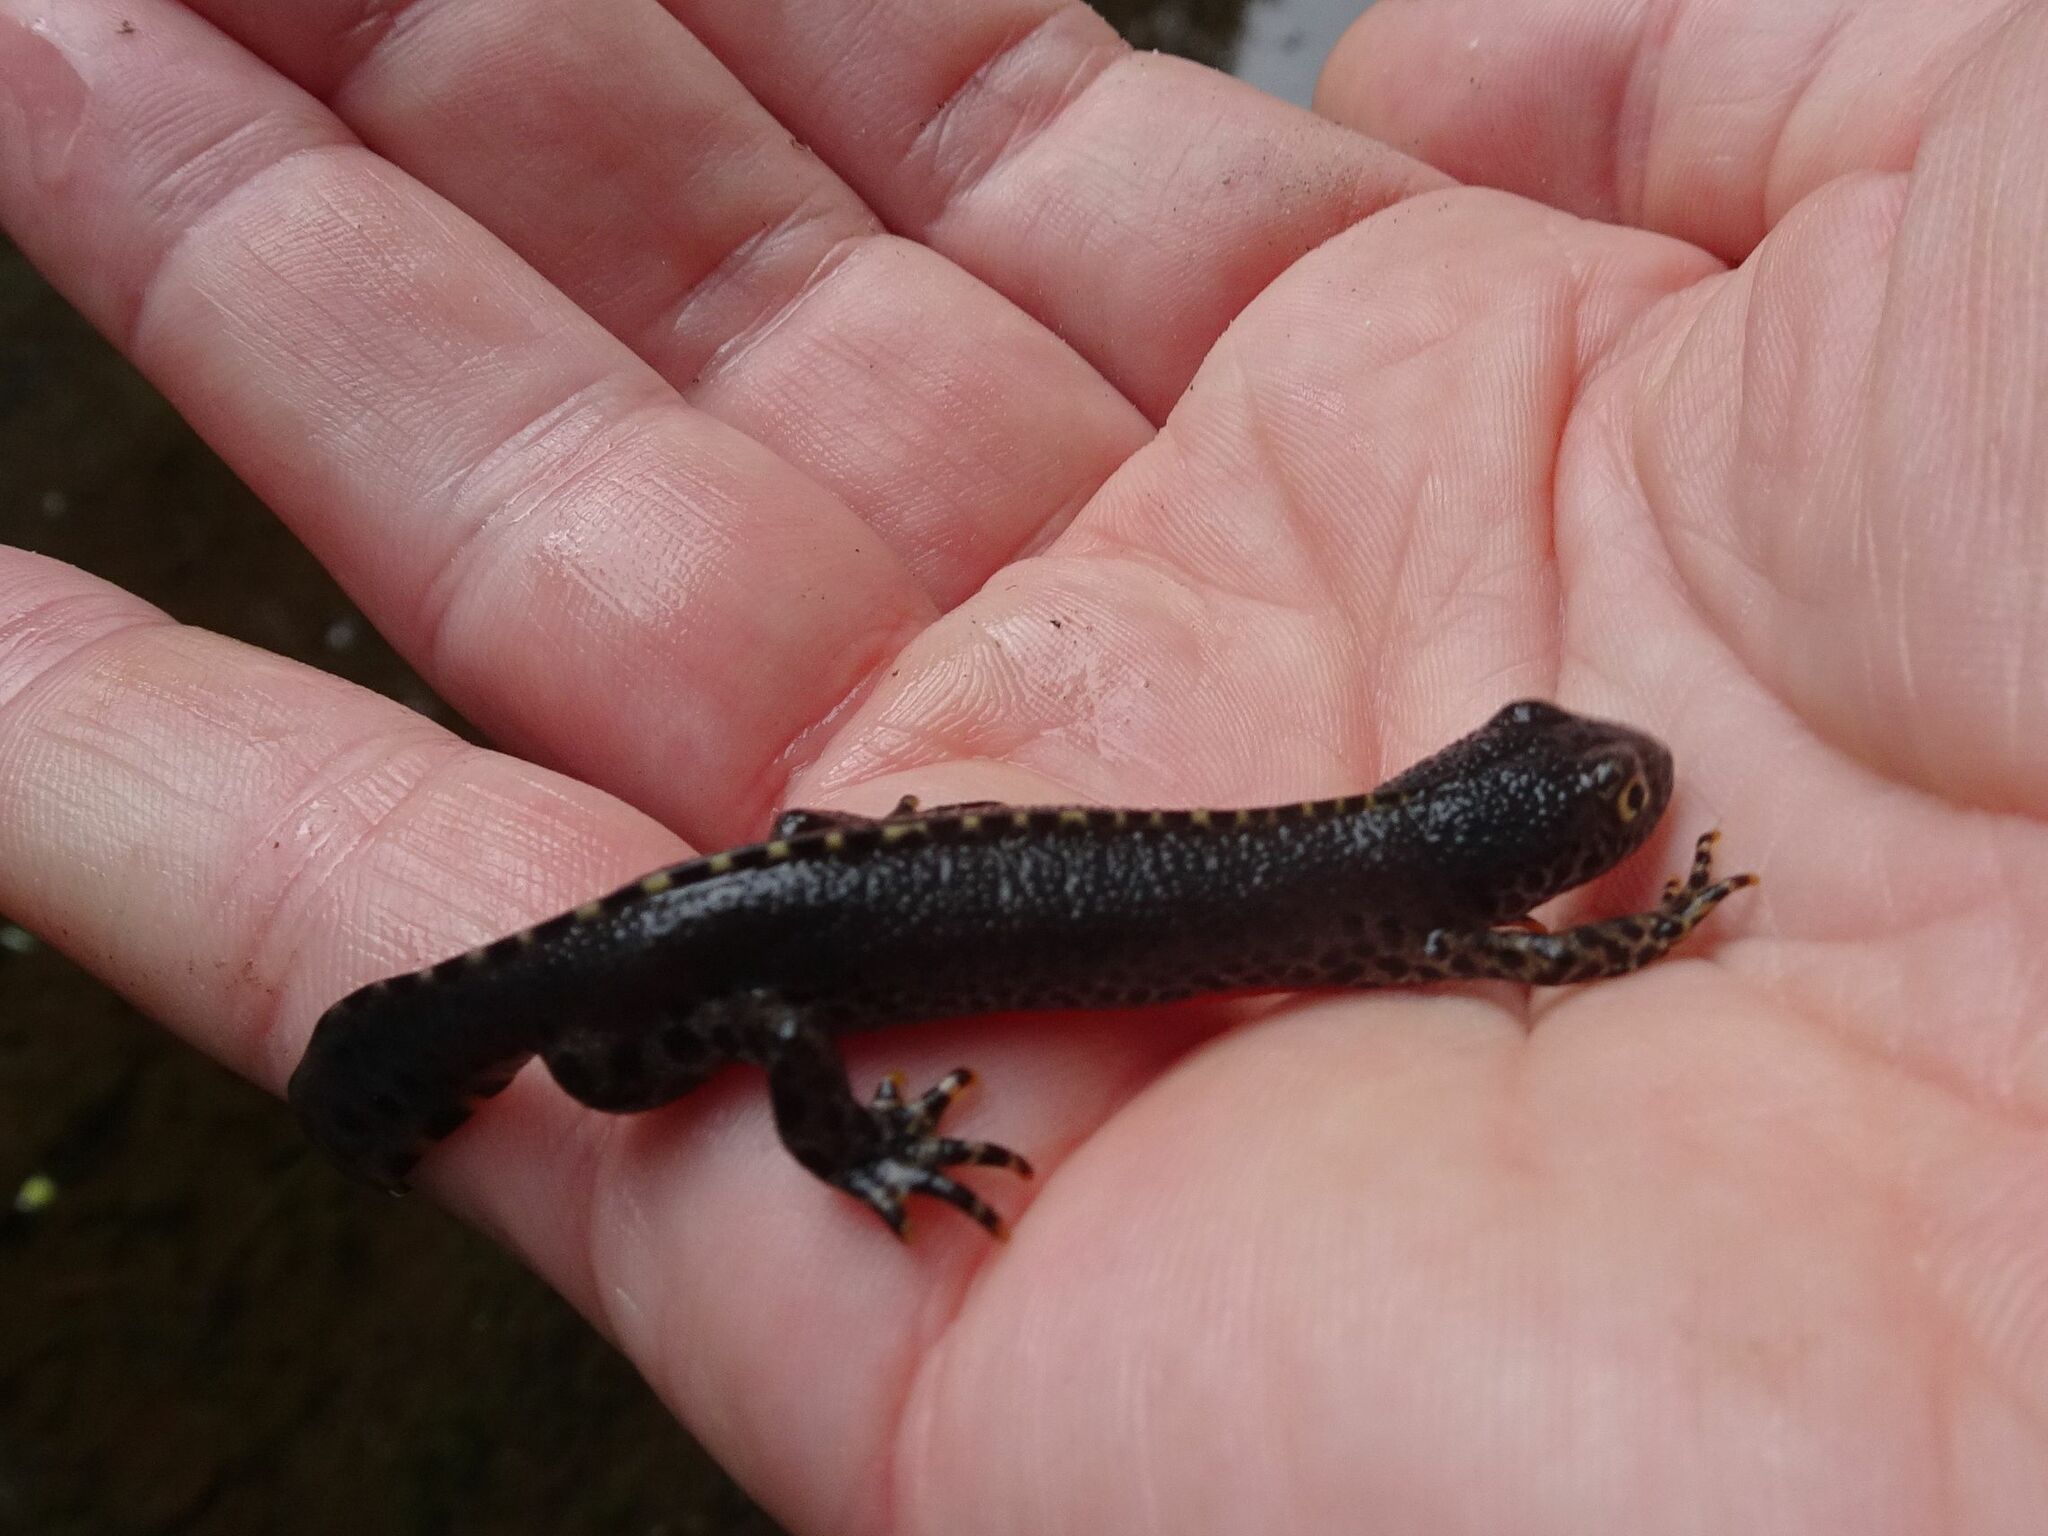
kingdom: Animalia
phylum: Chordata
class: Amphibia
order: Caudata
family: Salamandridae
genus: Ichthyosaura
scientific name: Ichthyosaura alpestris
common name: Alpine newt
